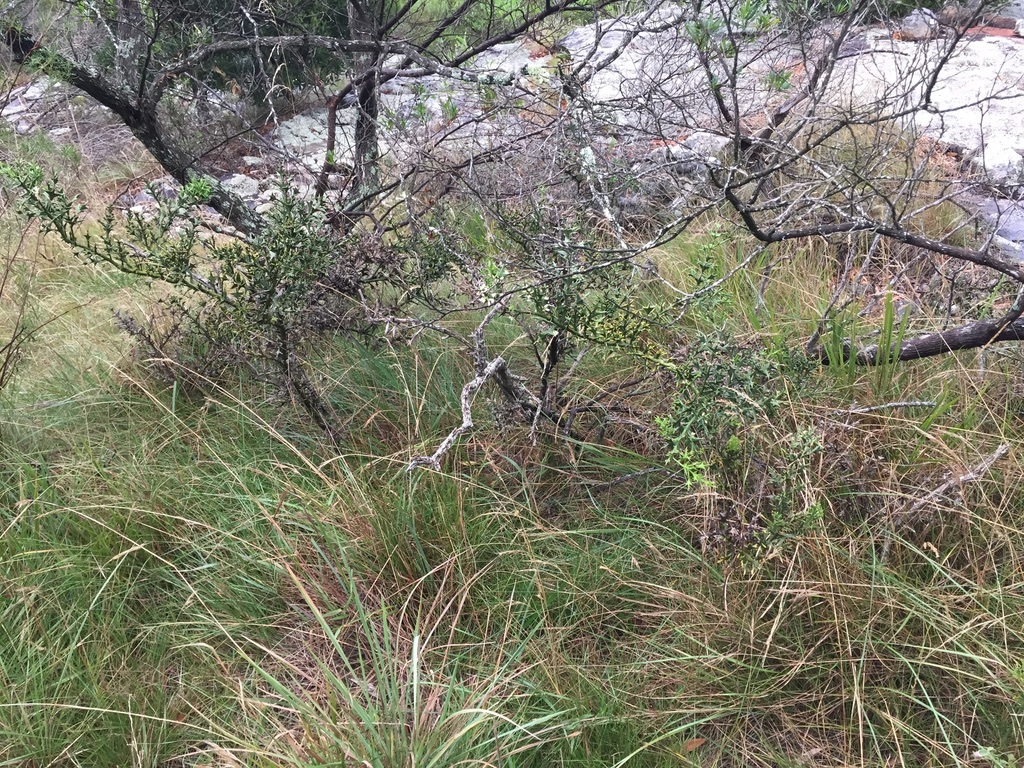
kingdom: Plantae
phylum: Tracheophyta
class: Magnoliopsida
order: Rosales
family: Rhamnaceae
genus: Colletia
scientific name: Colletia paradoxa
